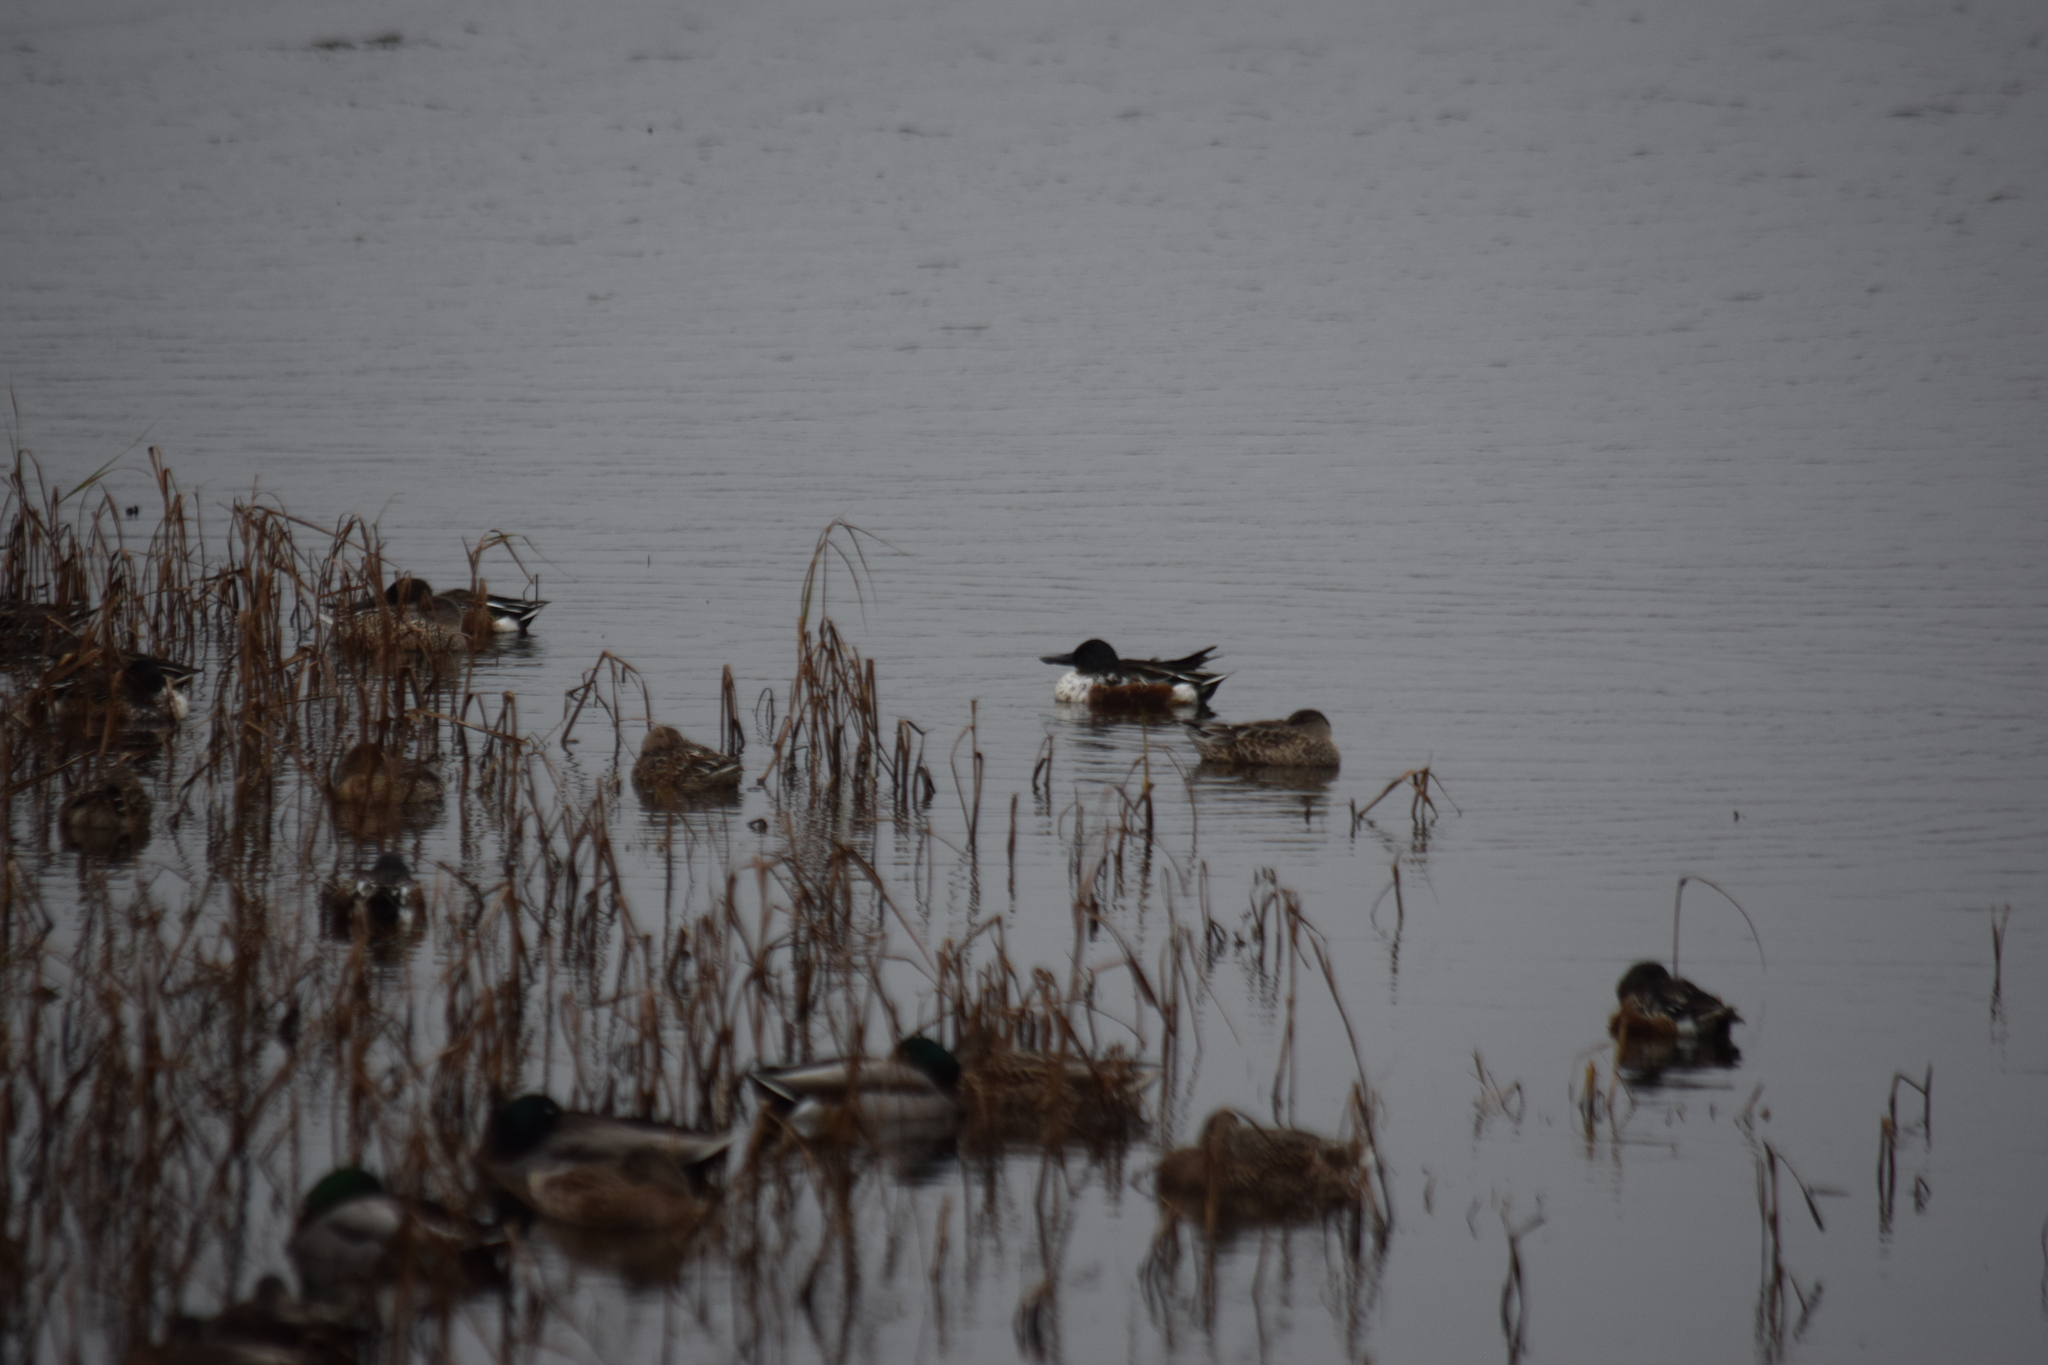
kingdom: Animalia
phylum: Chordata
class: Aves
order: Anseriformes
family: Anatidae
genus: Spatula
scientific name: Spatula clypeata
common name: Northern shoveler
